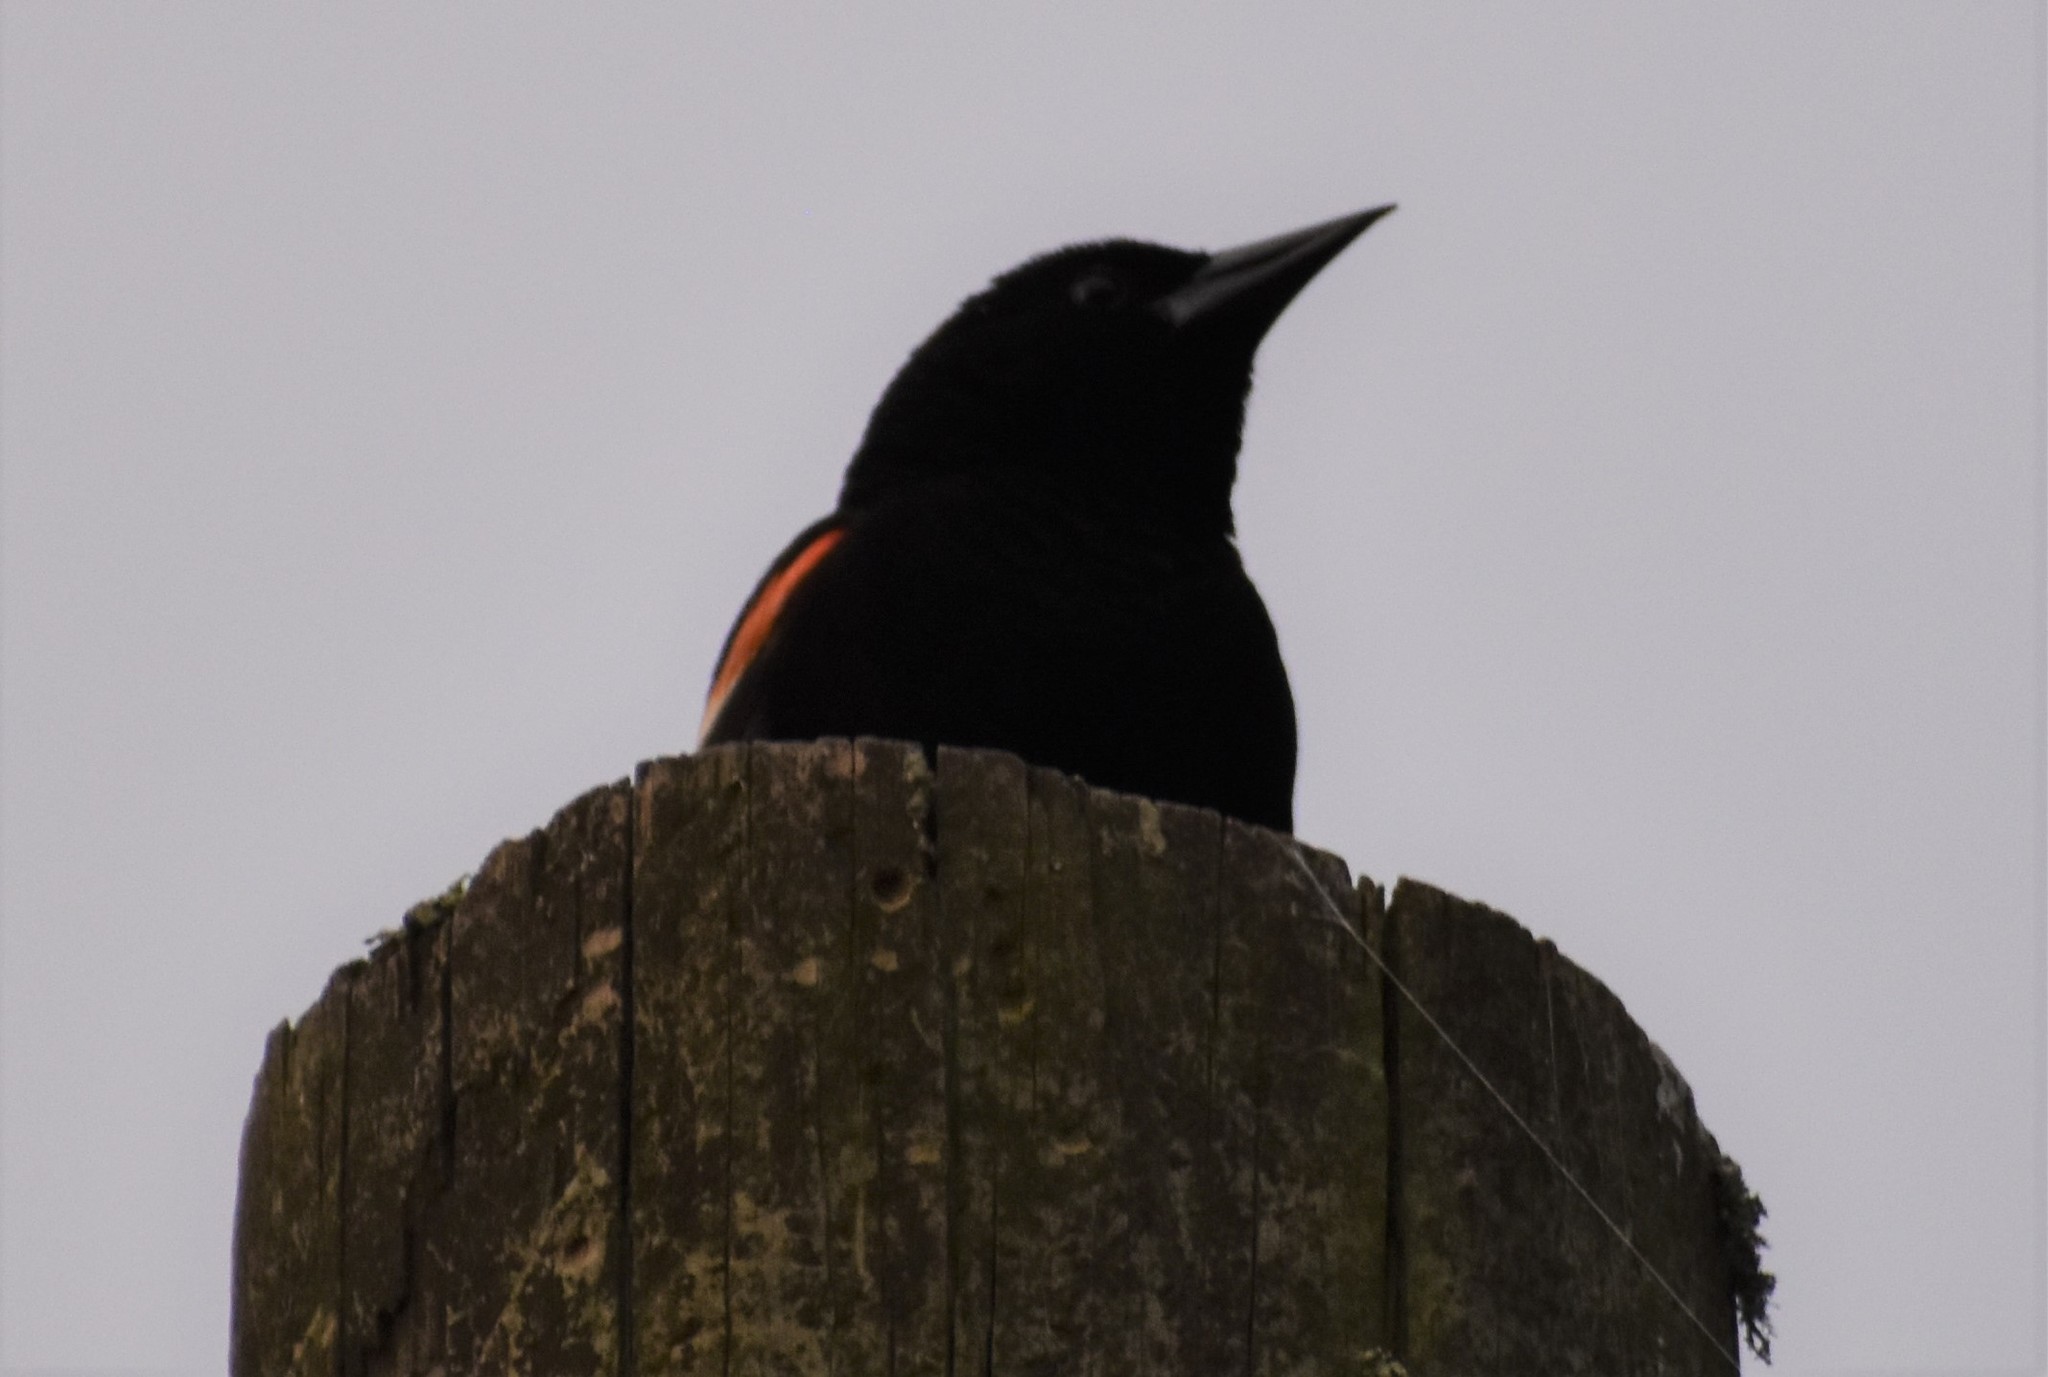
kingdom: Animalia
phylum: Chordata
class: Aves
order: Passeriformes
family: Icteridae
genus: Agelaius
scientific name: Agelaius phoeniceus
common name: Red-winged blackbird
